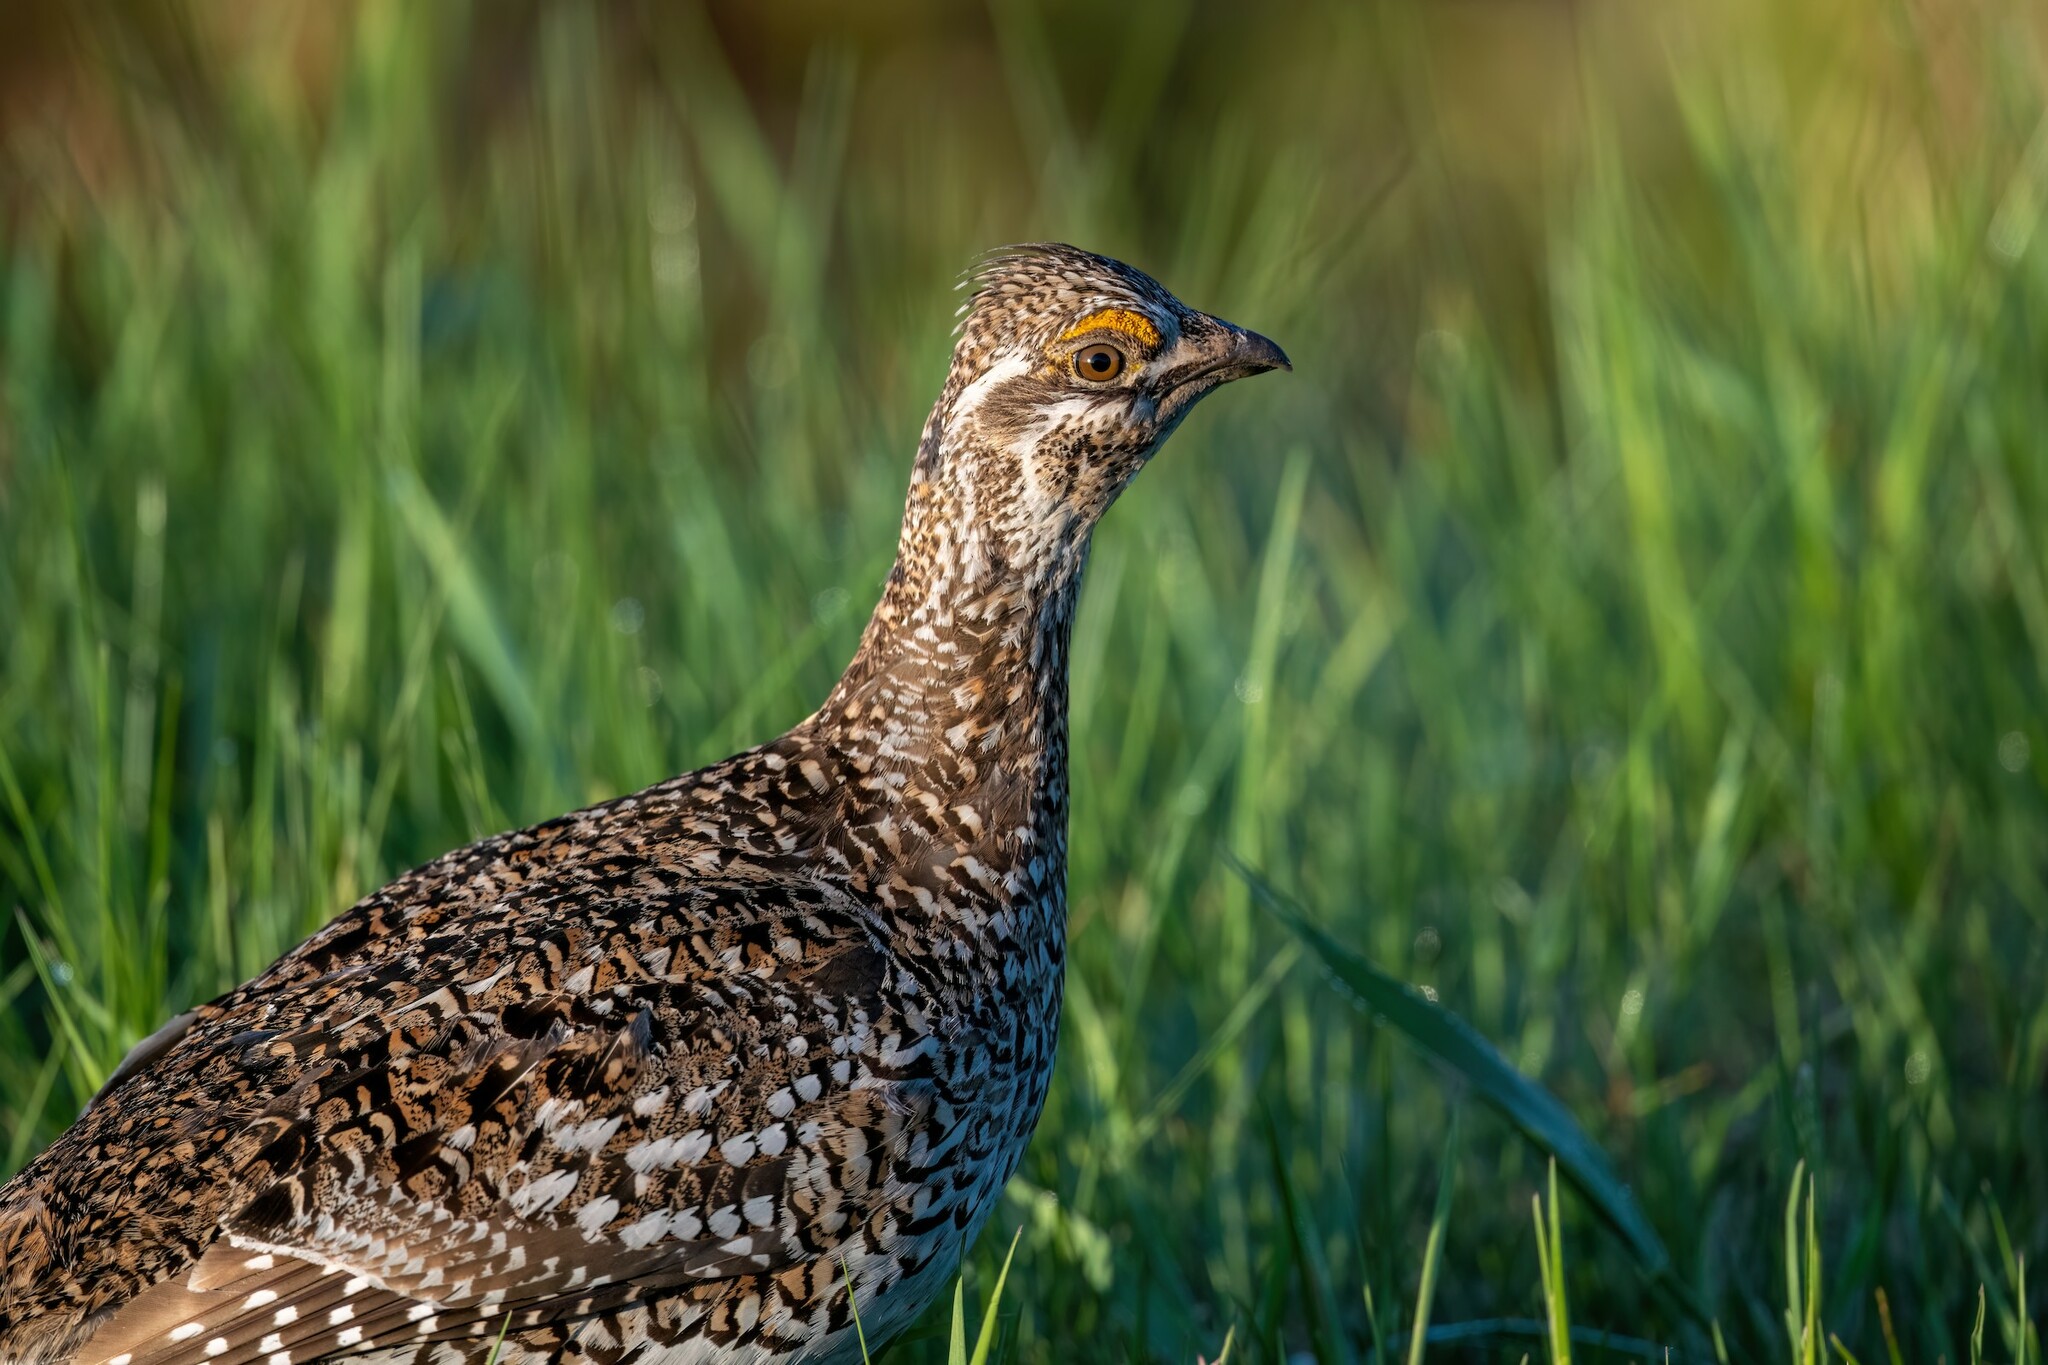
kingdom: Animalia
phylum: Chordata
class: Aves
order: Galliformes
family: Phasianidae
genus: Tympanuchus
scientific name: Tympanuchus phasianellus
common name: Sharp-tailed grouse
